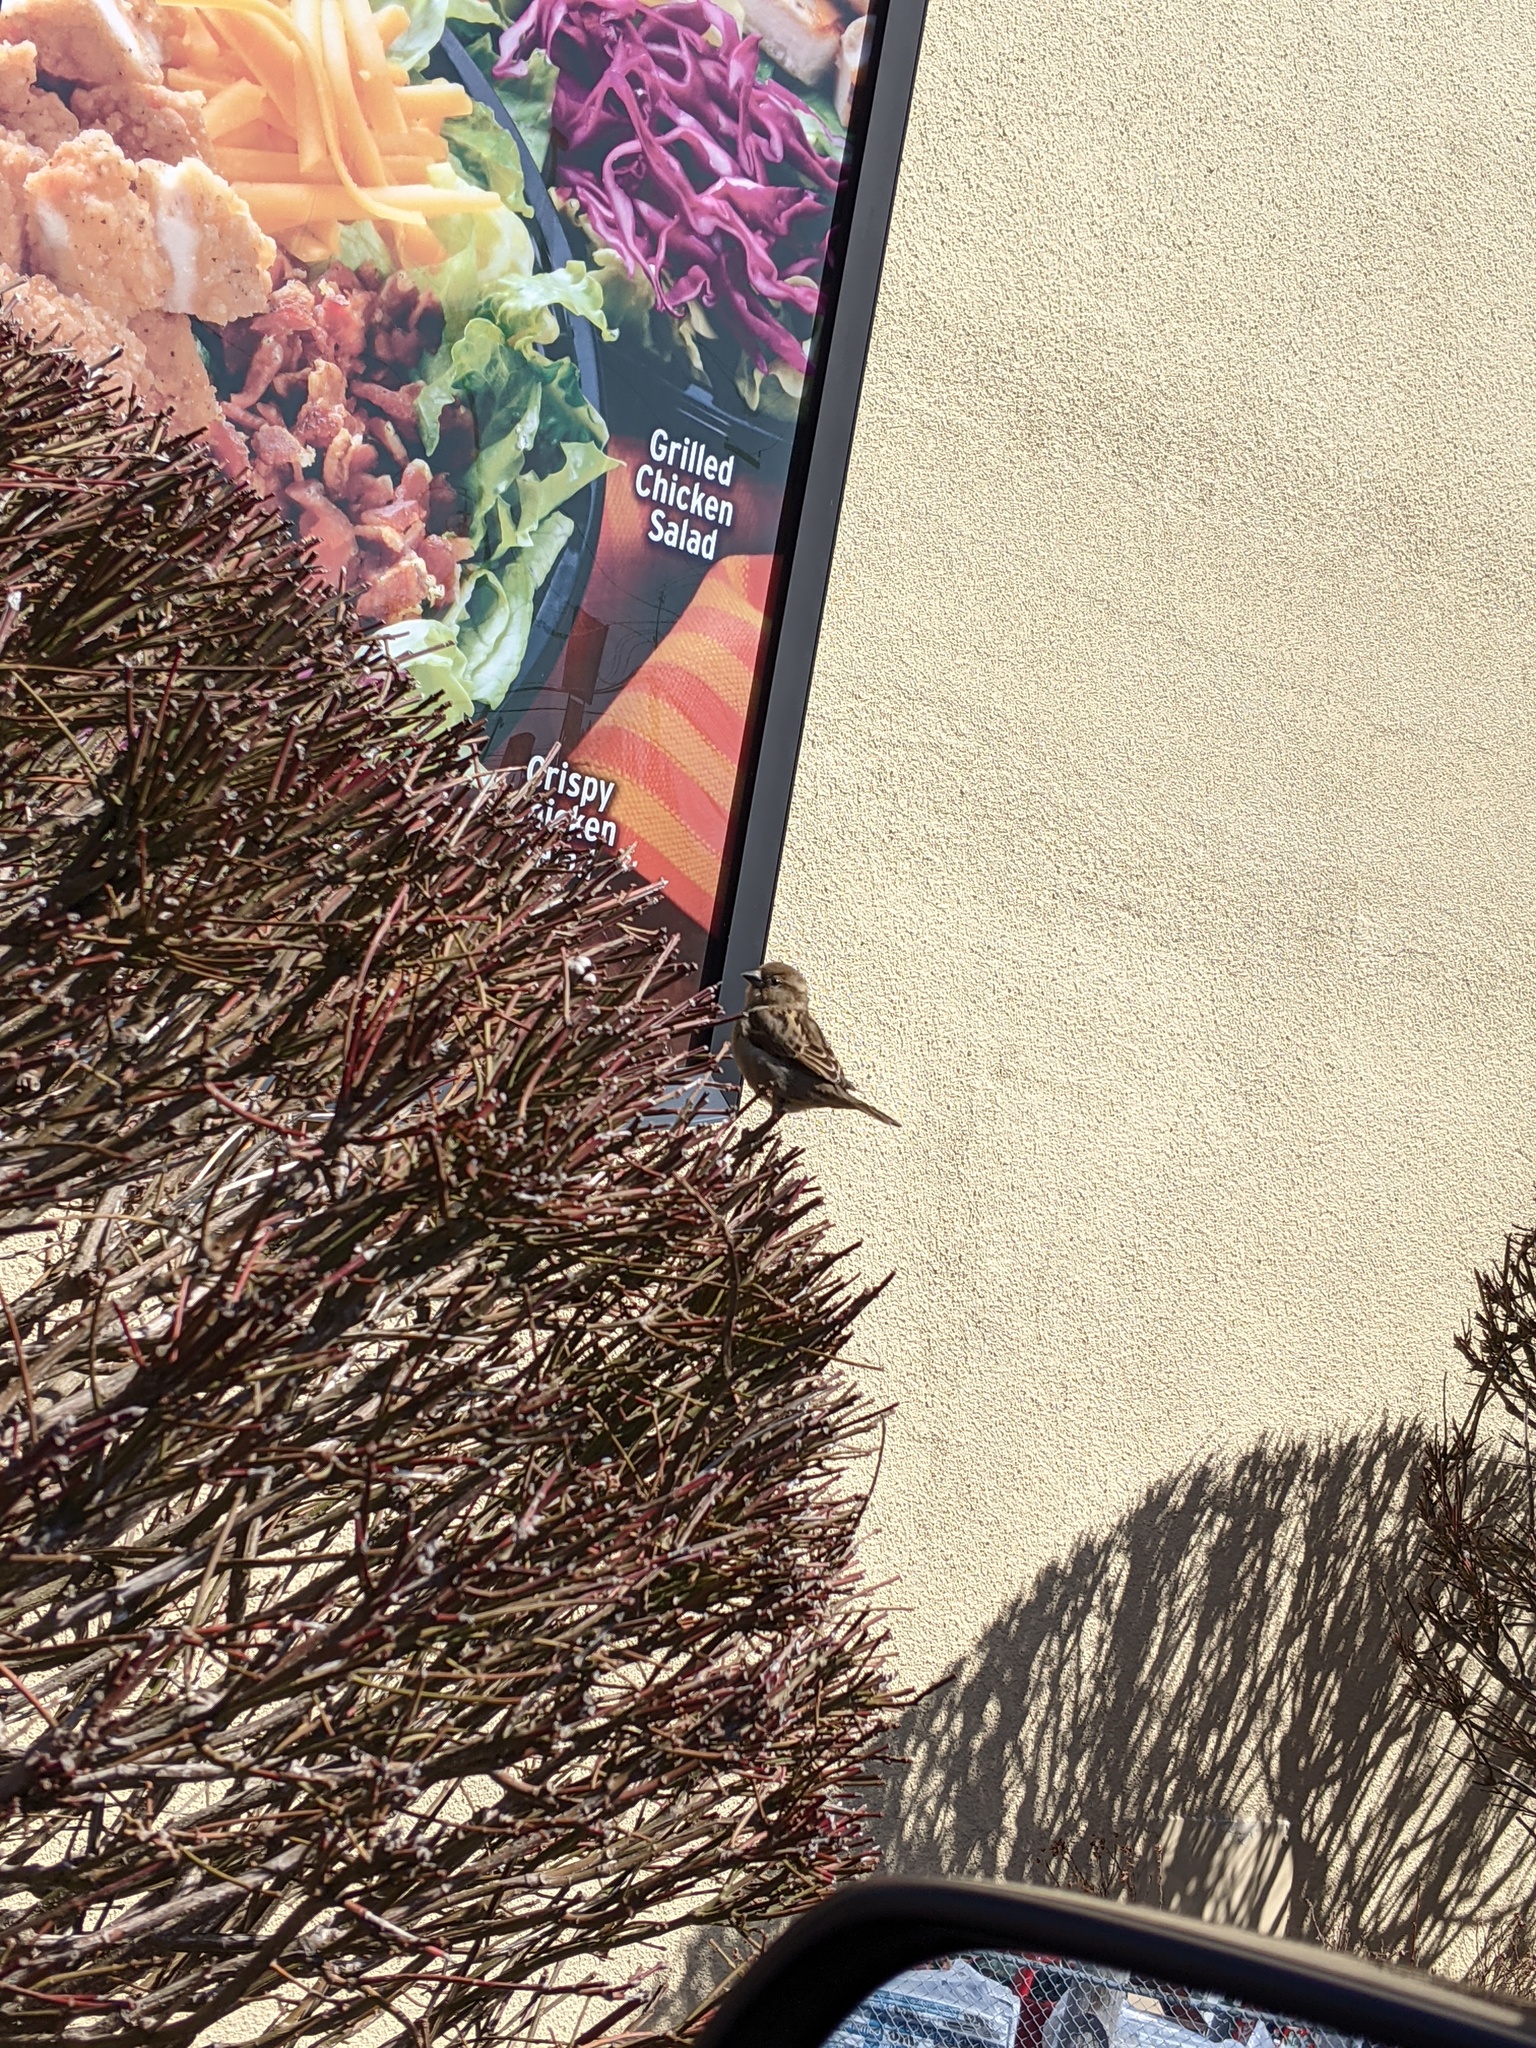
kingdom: Animalia
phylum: Chordata
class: Aves
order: Passeriformes
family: Passeridae
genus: Passer
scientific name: Passer domesticus
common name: House sparrow
